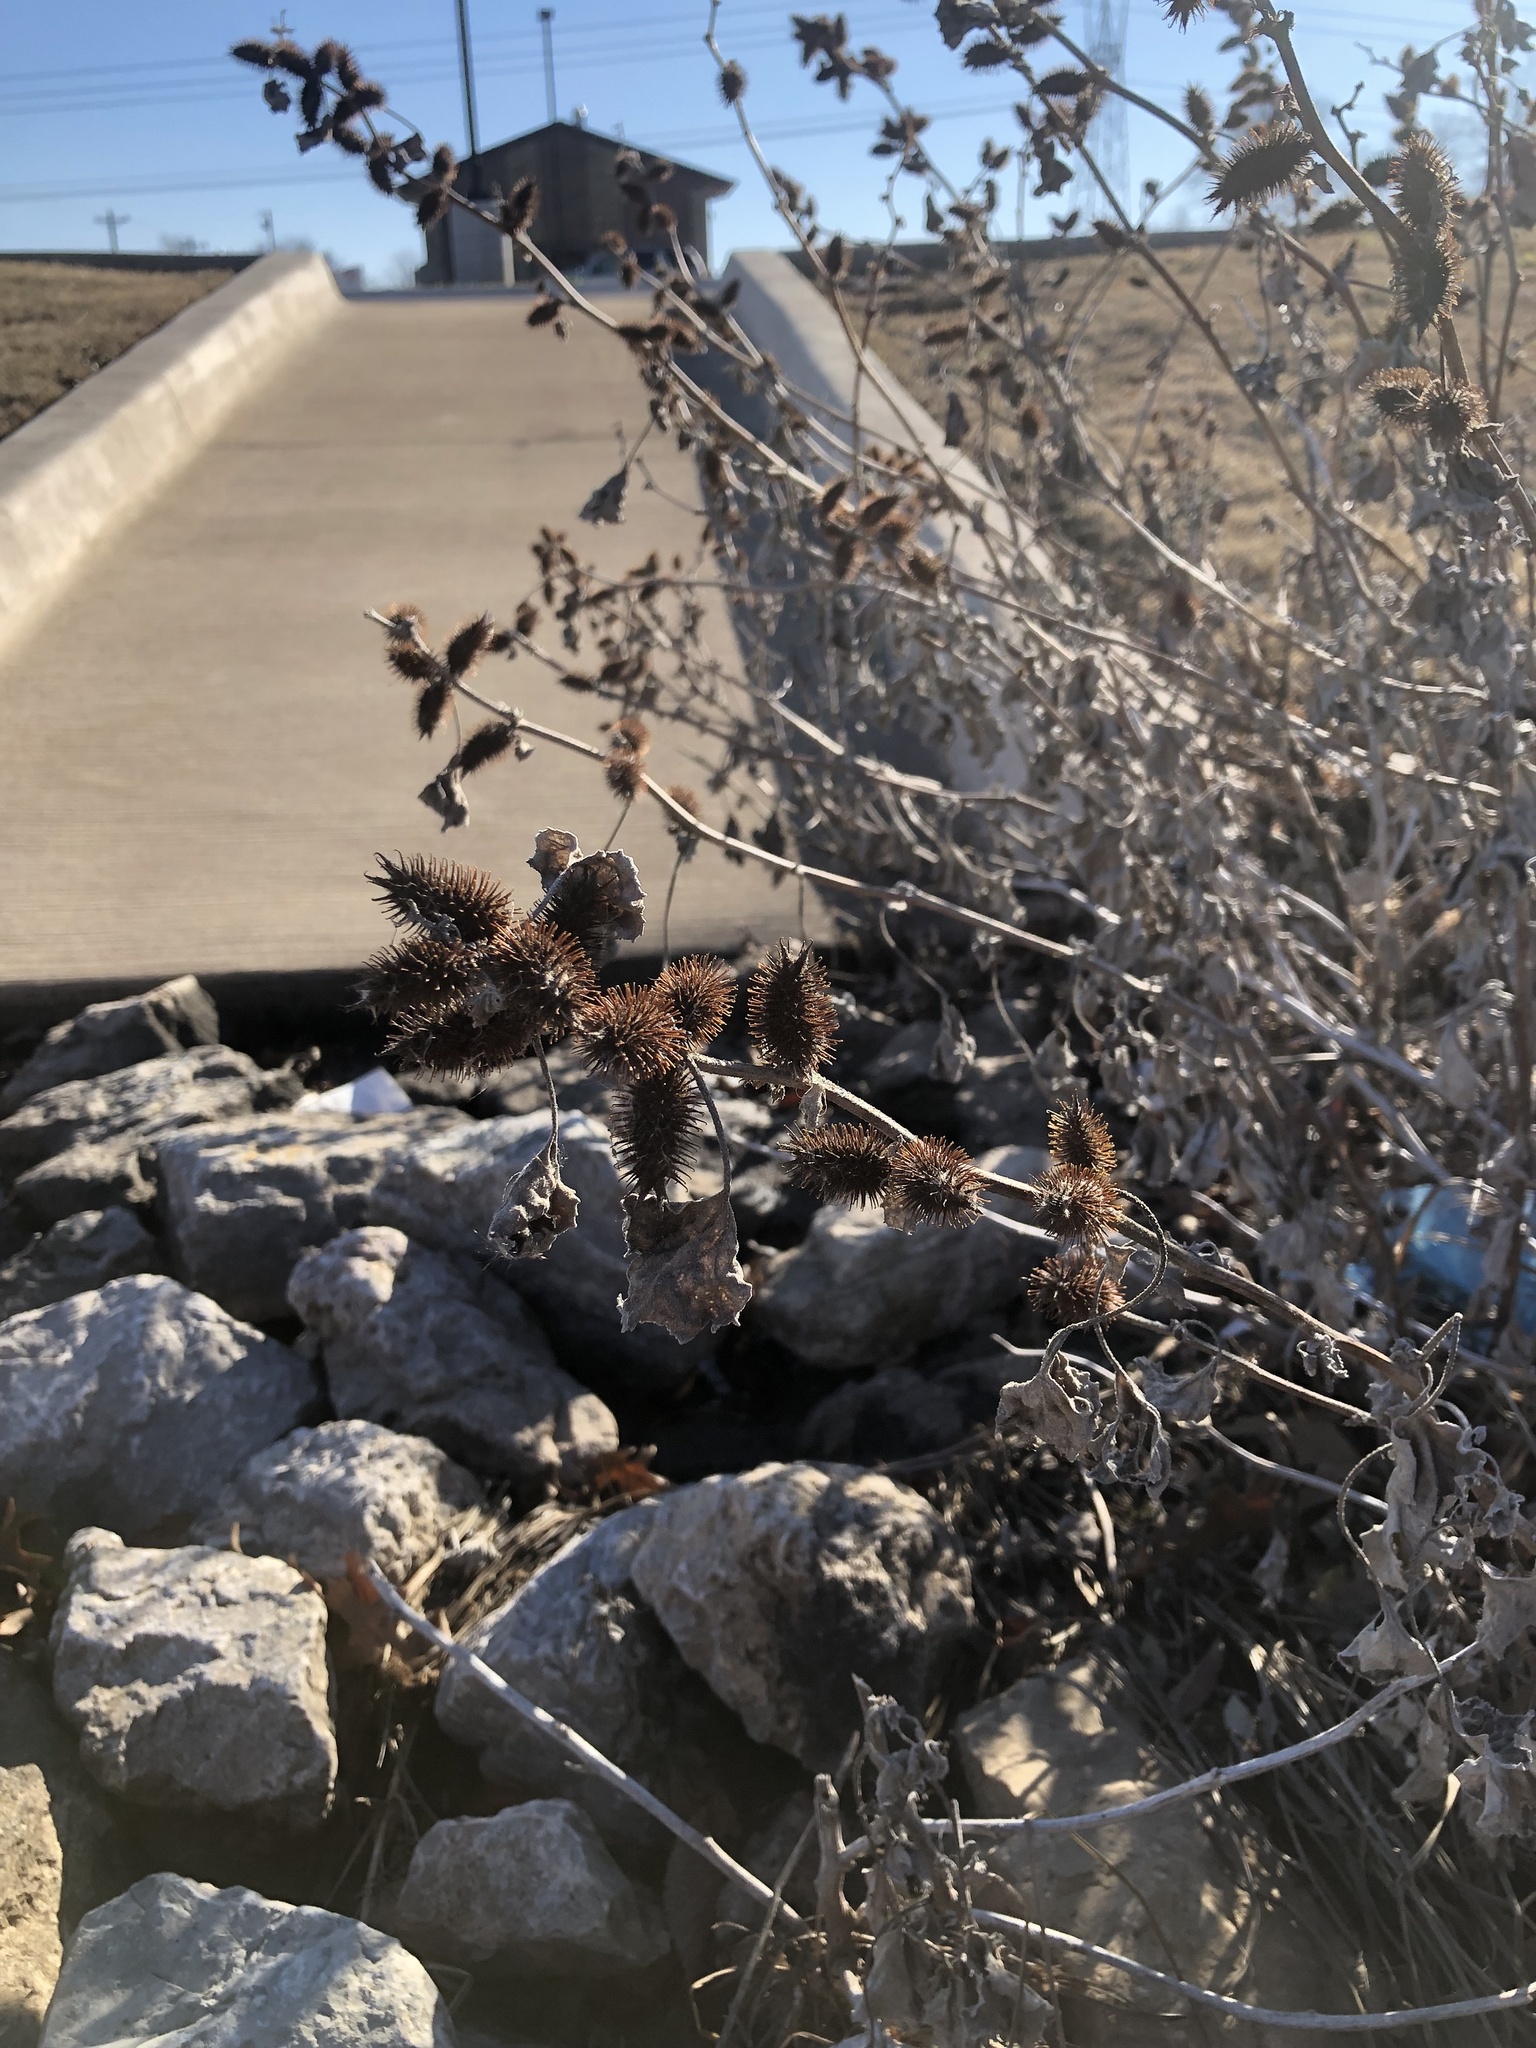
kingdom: Plantae
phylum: Tracheophyta
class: Magnoliopsida
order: Asterales
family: Asteraceae
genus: Xanthium
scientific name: Xanthium strumarium
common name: Rough cocklebur
